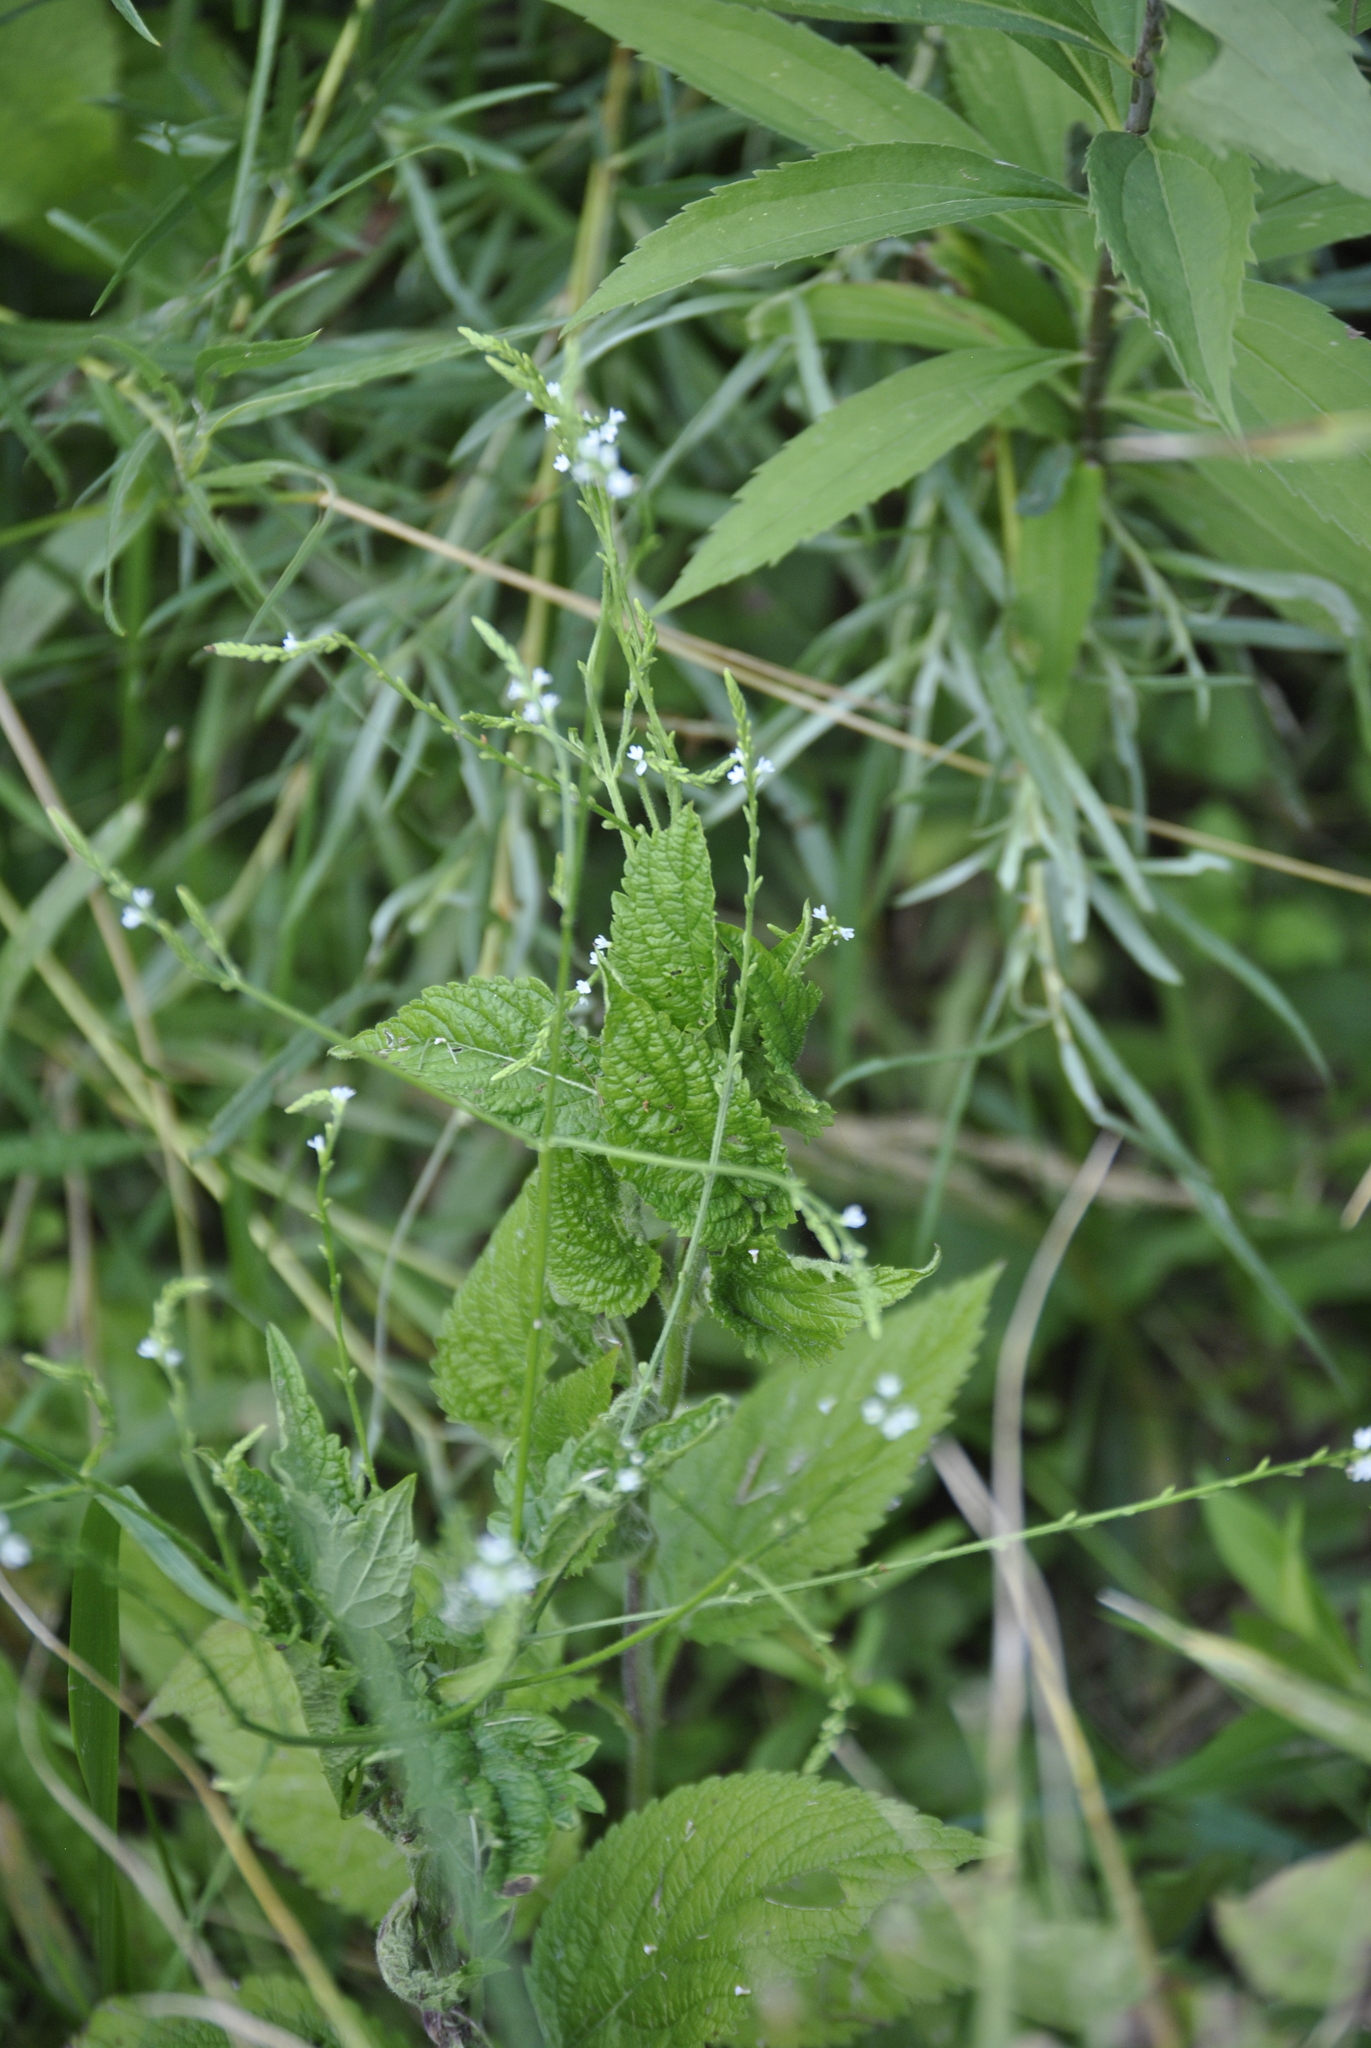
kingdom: Plantae
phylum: Tracheophyta
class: Magnoliopsida
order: Lamiales
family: Verbenaceae
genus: Verbena
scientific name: Verbena urticifolia
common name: Nettle-leaved vervain
